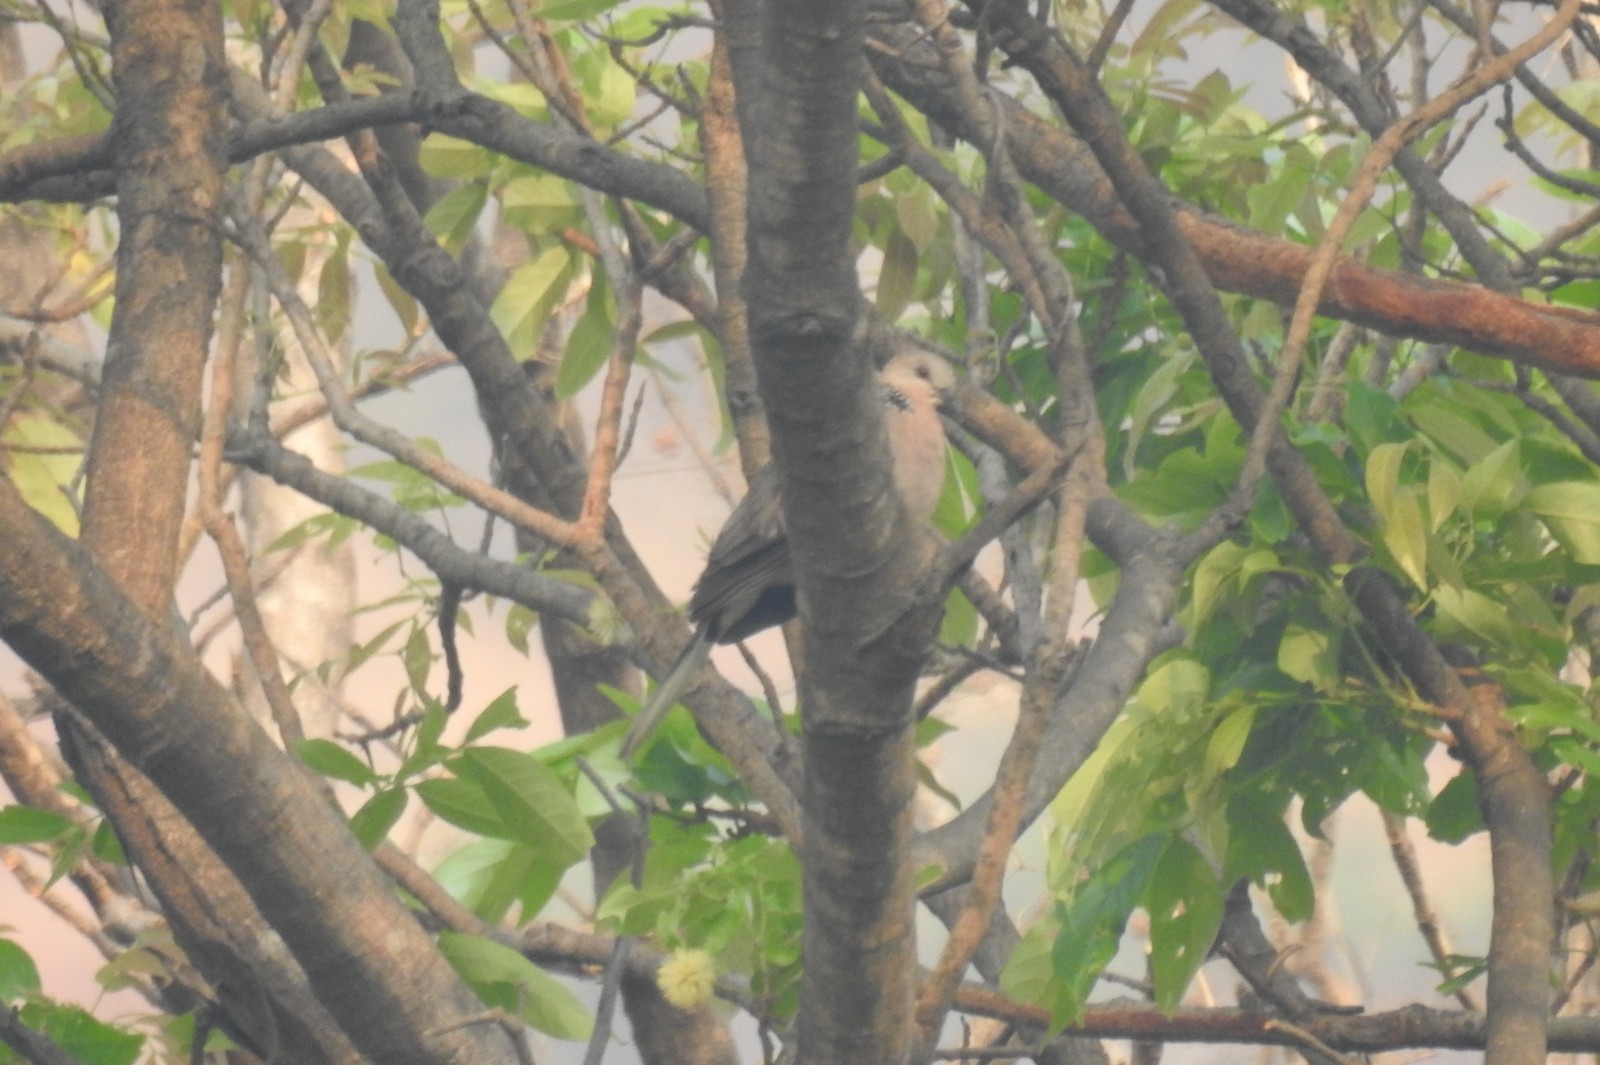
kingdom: Animalia
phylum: Chordata
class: Aves
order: Columbiformes
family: Columbidae
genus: Spilopelia
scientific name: Spilopelia chinensis
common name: Spotted dove
